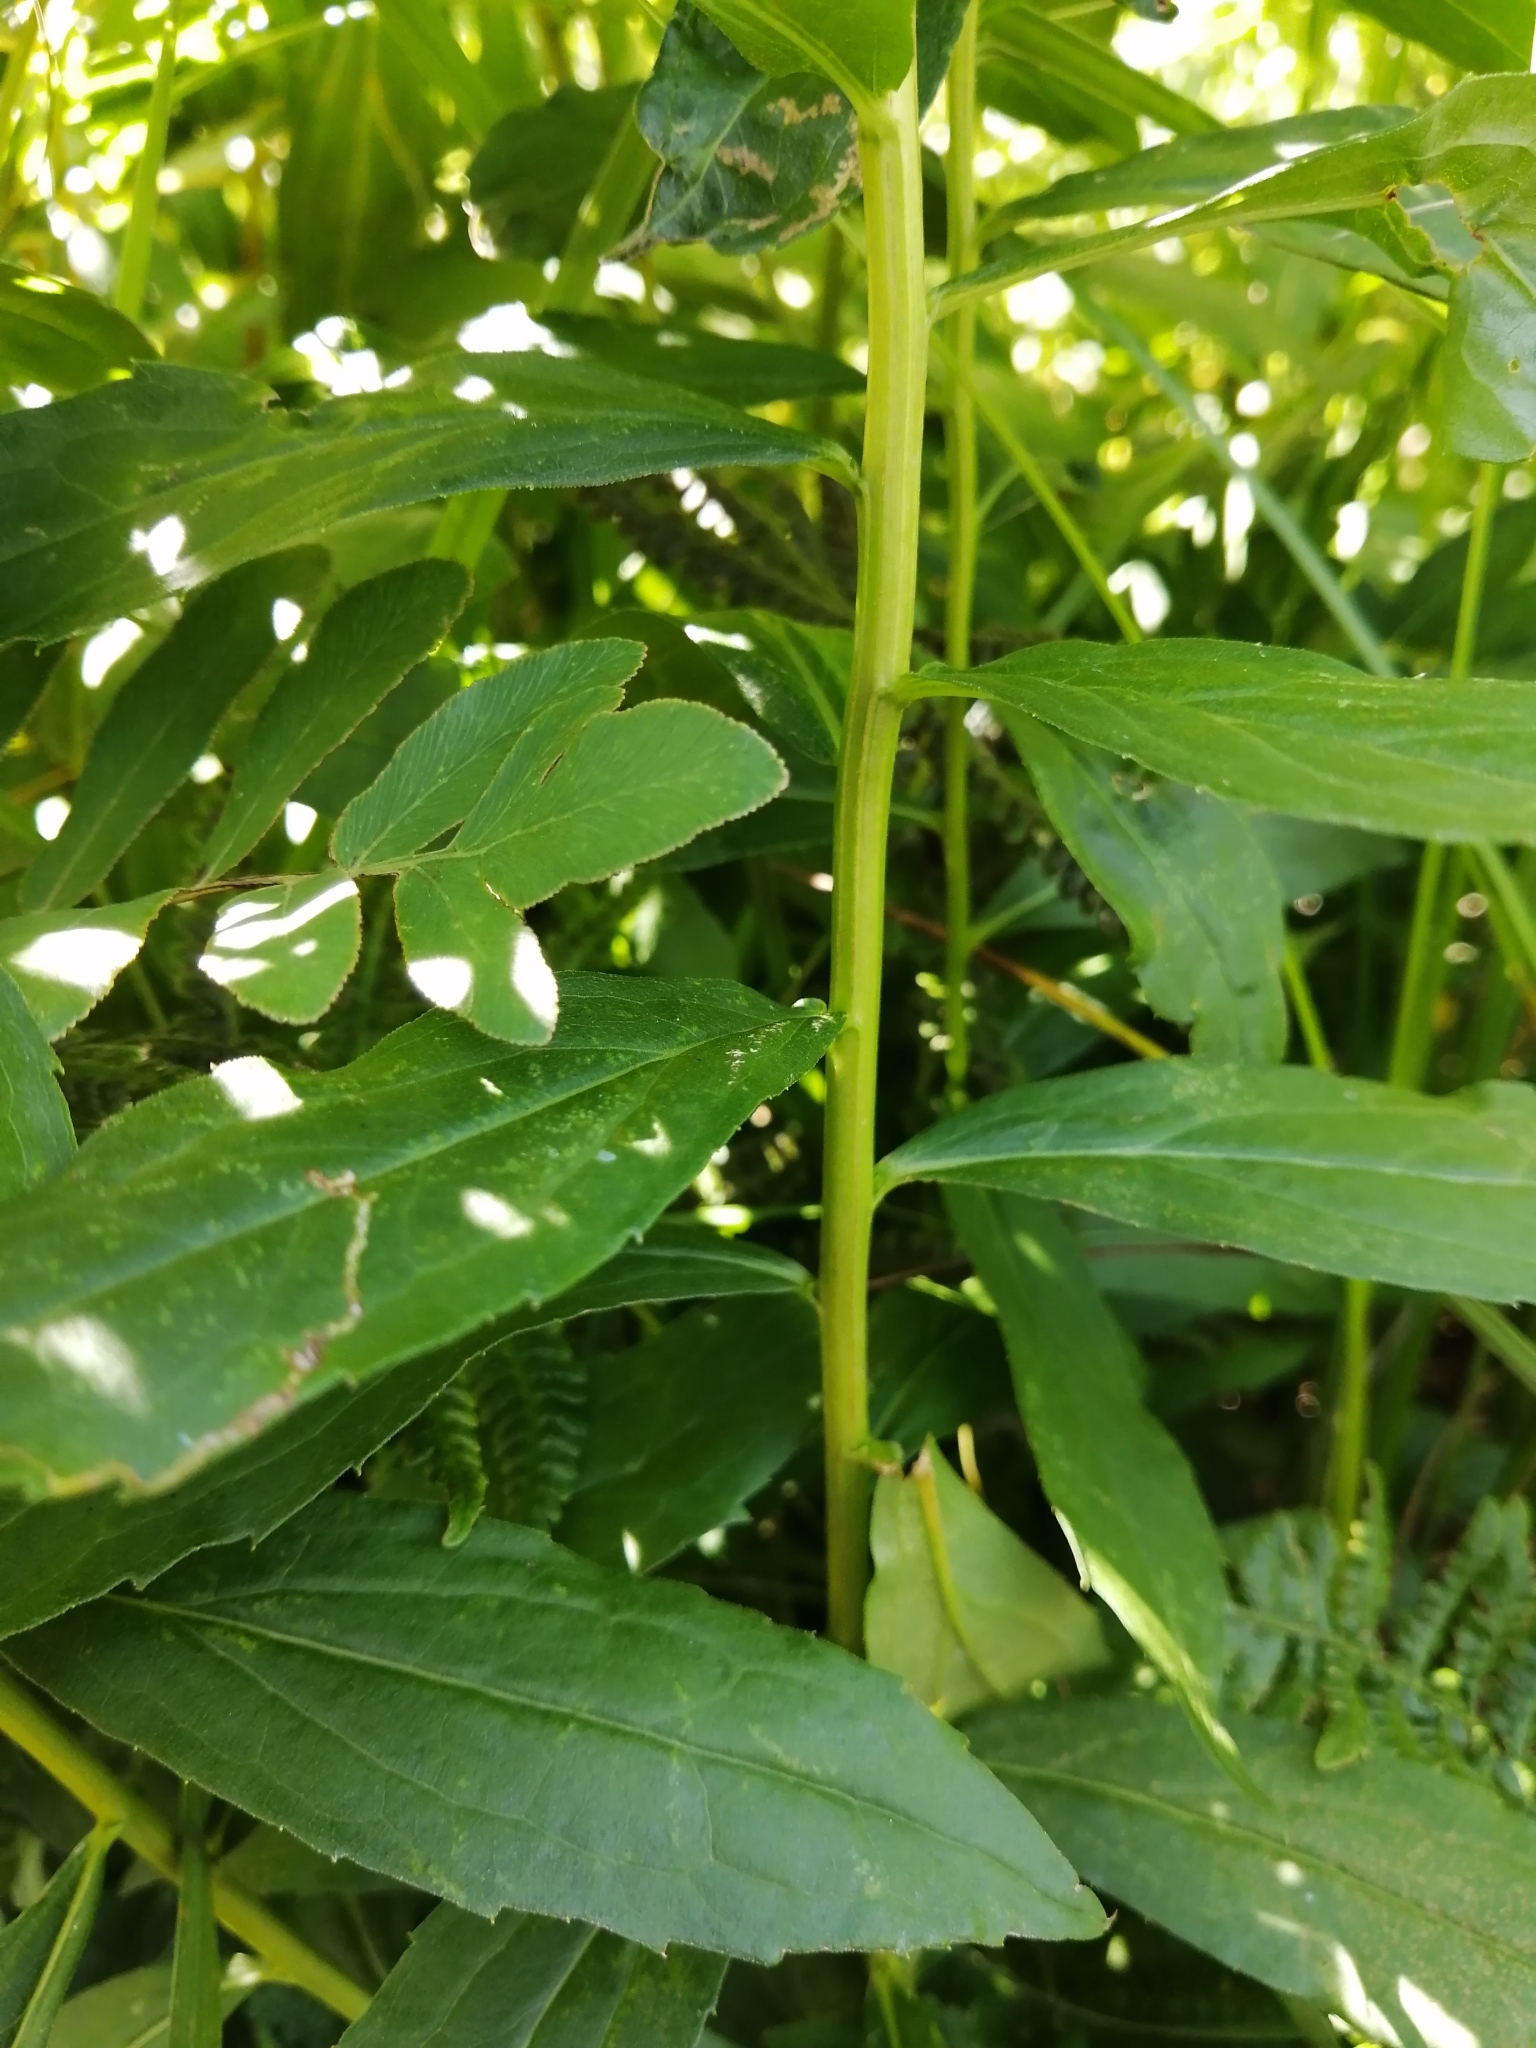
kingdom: Plantae
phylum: Tracheophyta
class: Magnoliopsida
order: Asterales
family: Asteraceae
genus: Solidago
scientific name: Solidago latissimifolia
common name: Elliott's goldenrod
